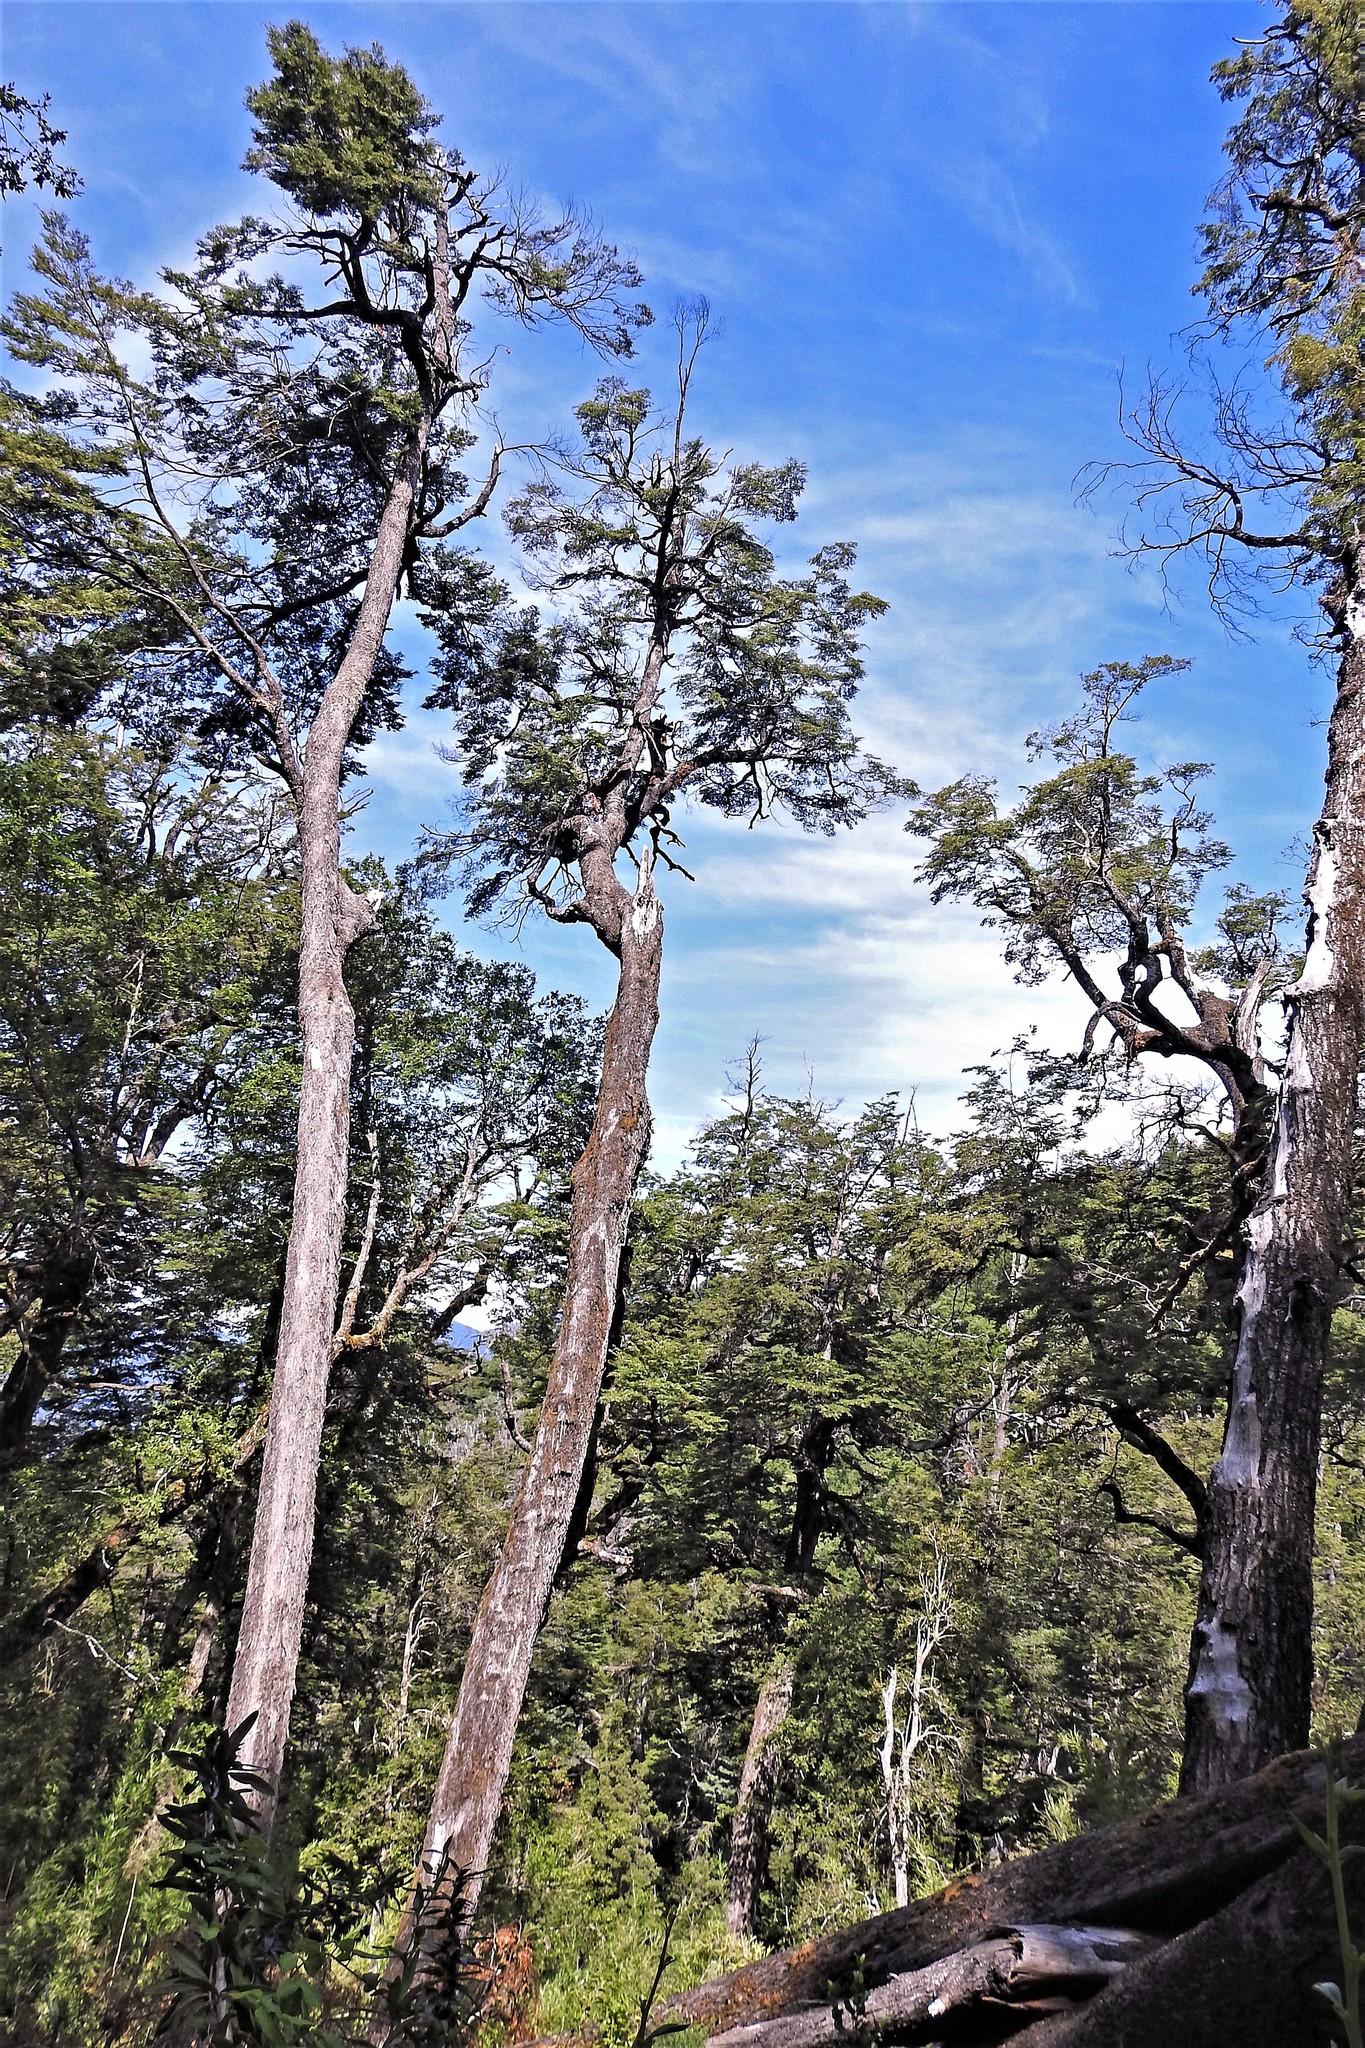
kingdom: Plantae
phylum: Tracheophyta
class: Magnoliopsida
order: Fagales
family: Nothofagaceae
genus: Nothofagus
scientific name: Nothofagus dombeyi
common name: Coigue
